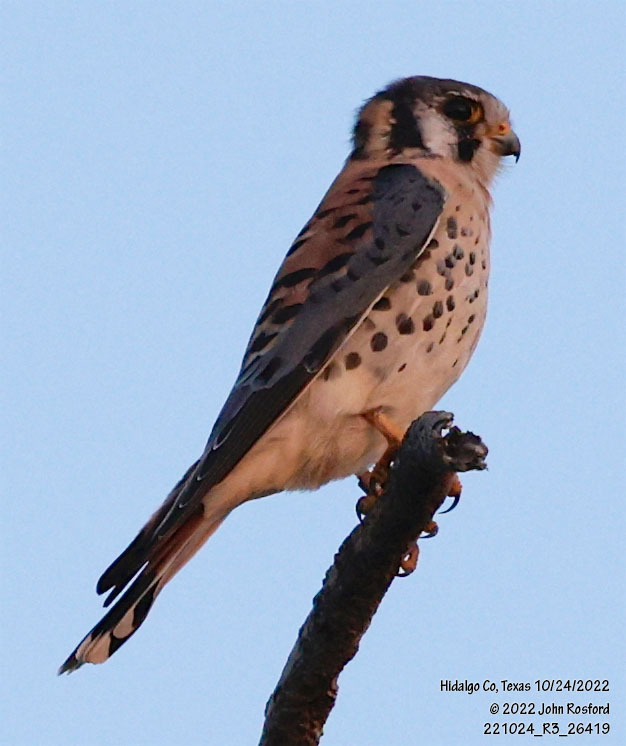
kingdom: Animalia
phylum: Chordata
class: Aves
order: Falconiformes
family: Falconidae
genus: Falco
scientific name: Falco sparverius
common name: American kestrel
